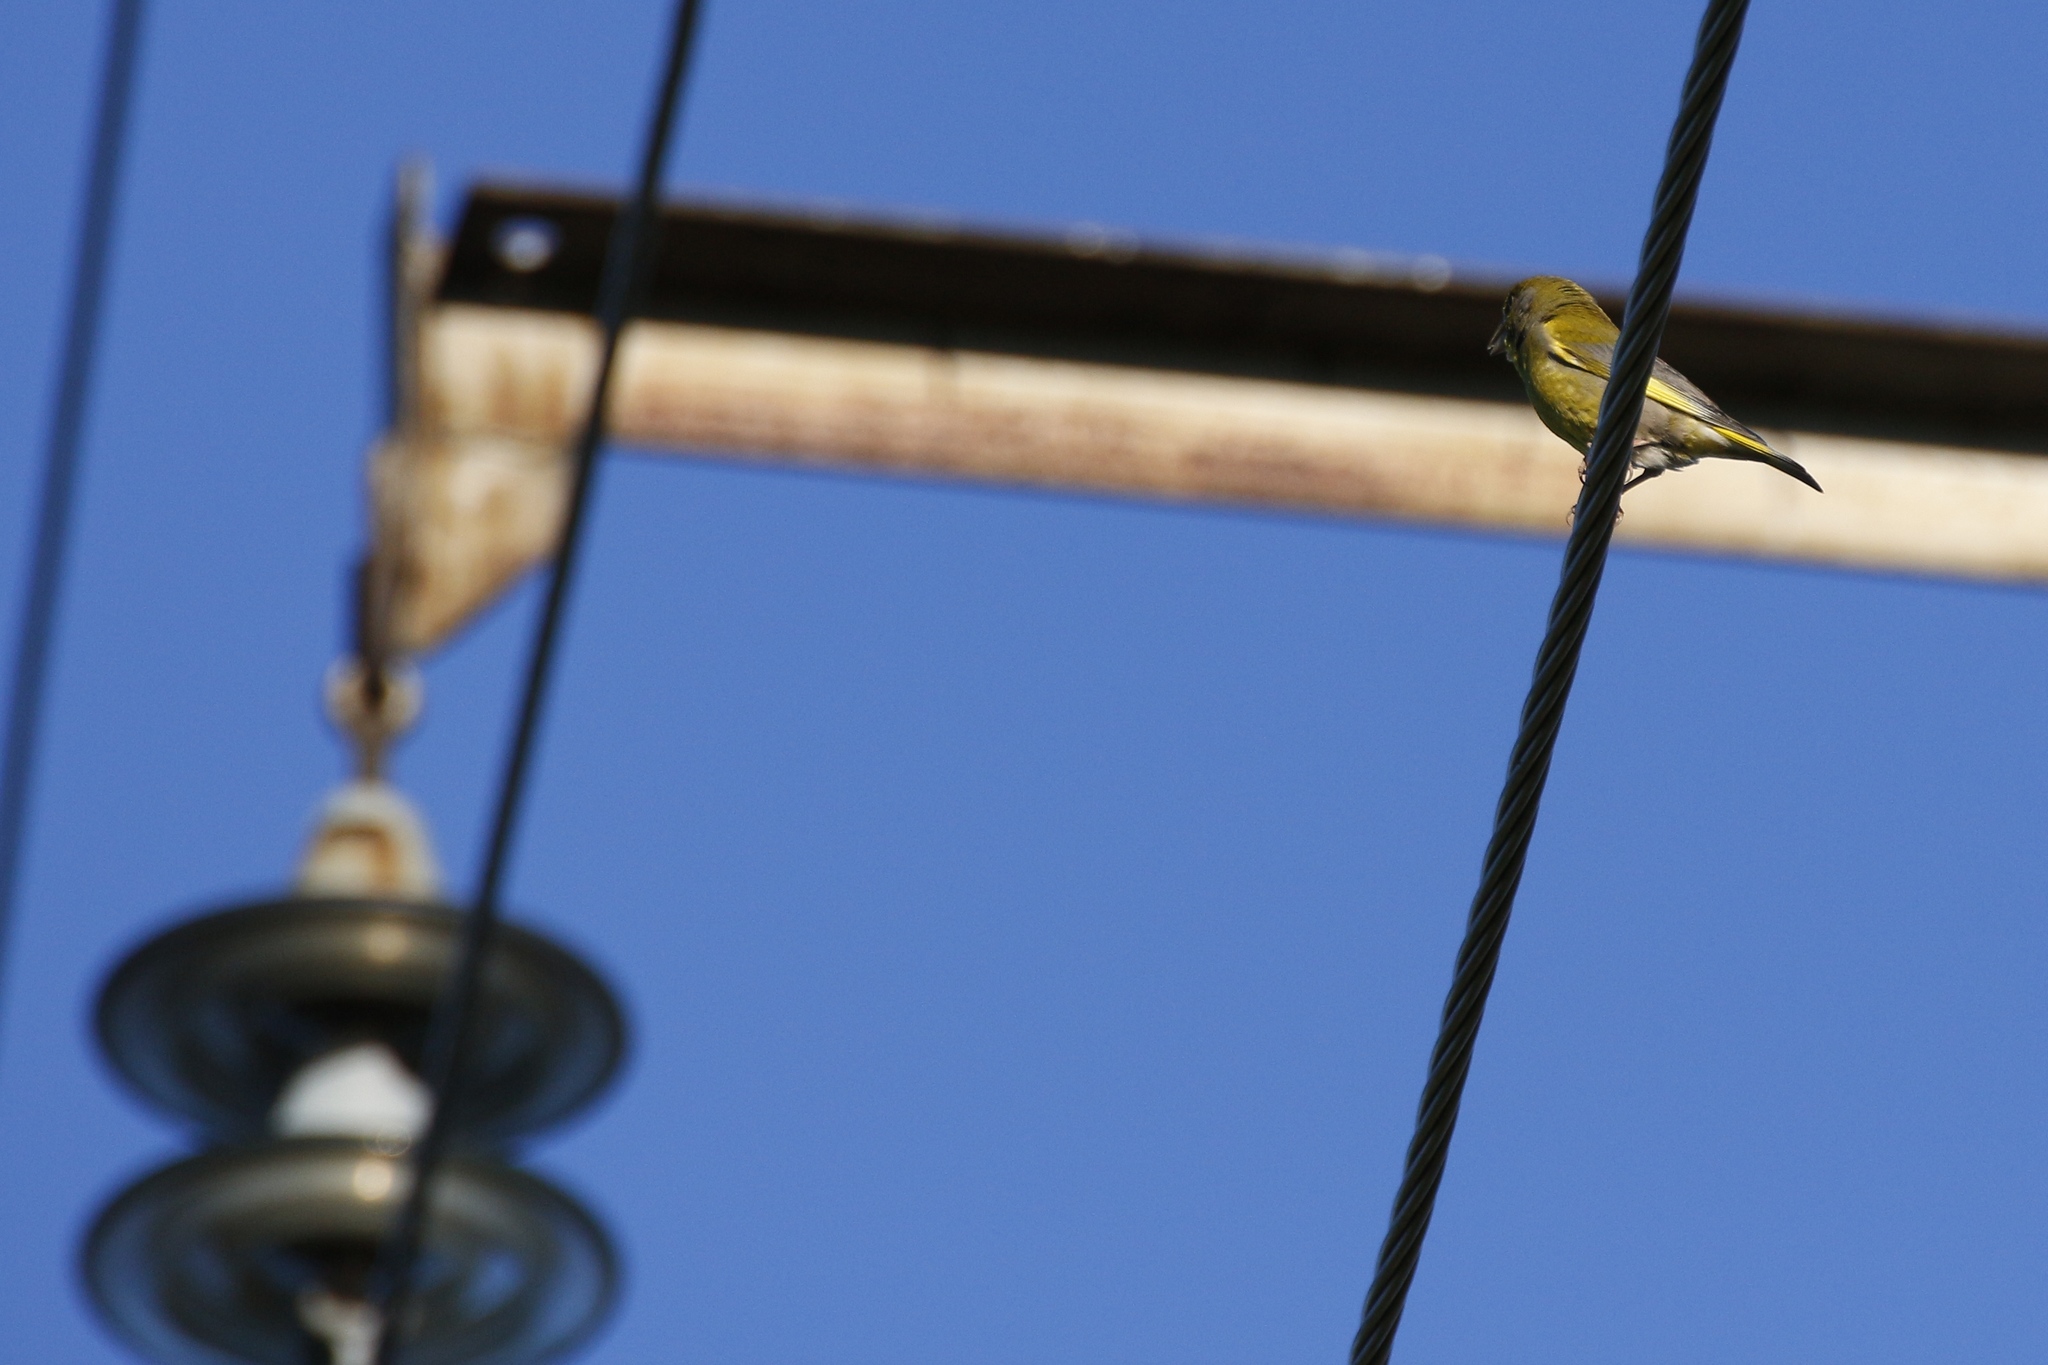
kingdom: Plantae
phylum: Tracheophyta
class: Liliopsida
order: Poales
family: Poaceae
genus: Chloris
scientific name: Chloris chloris
